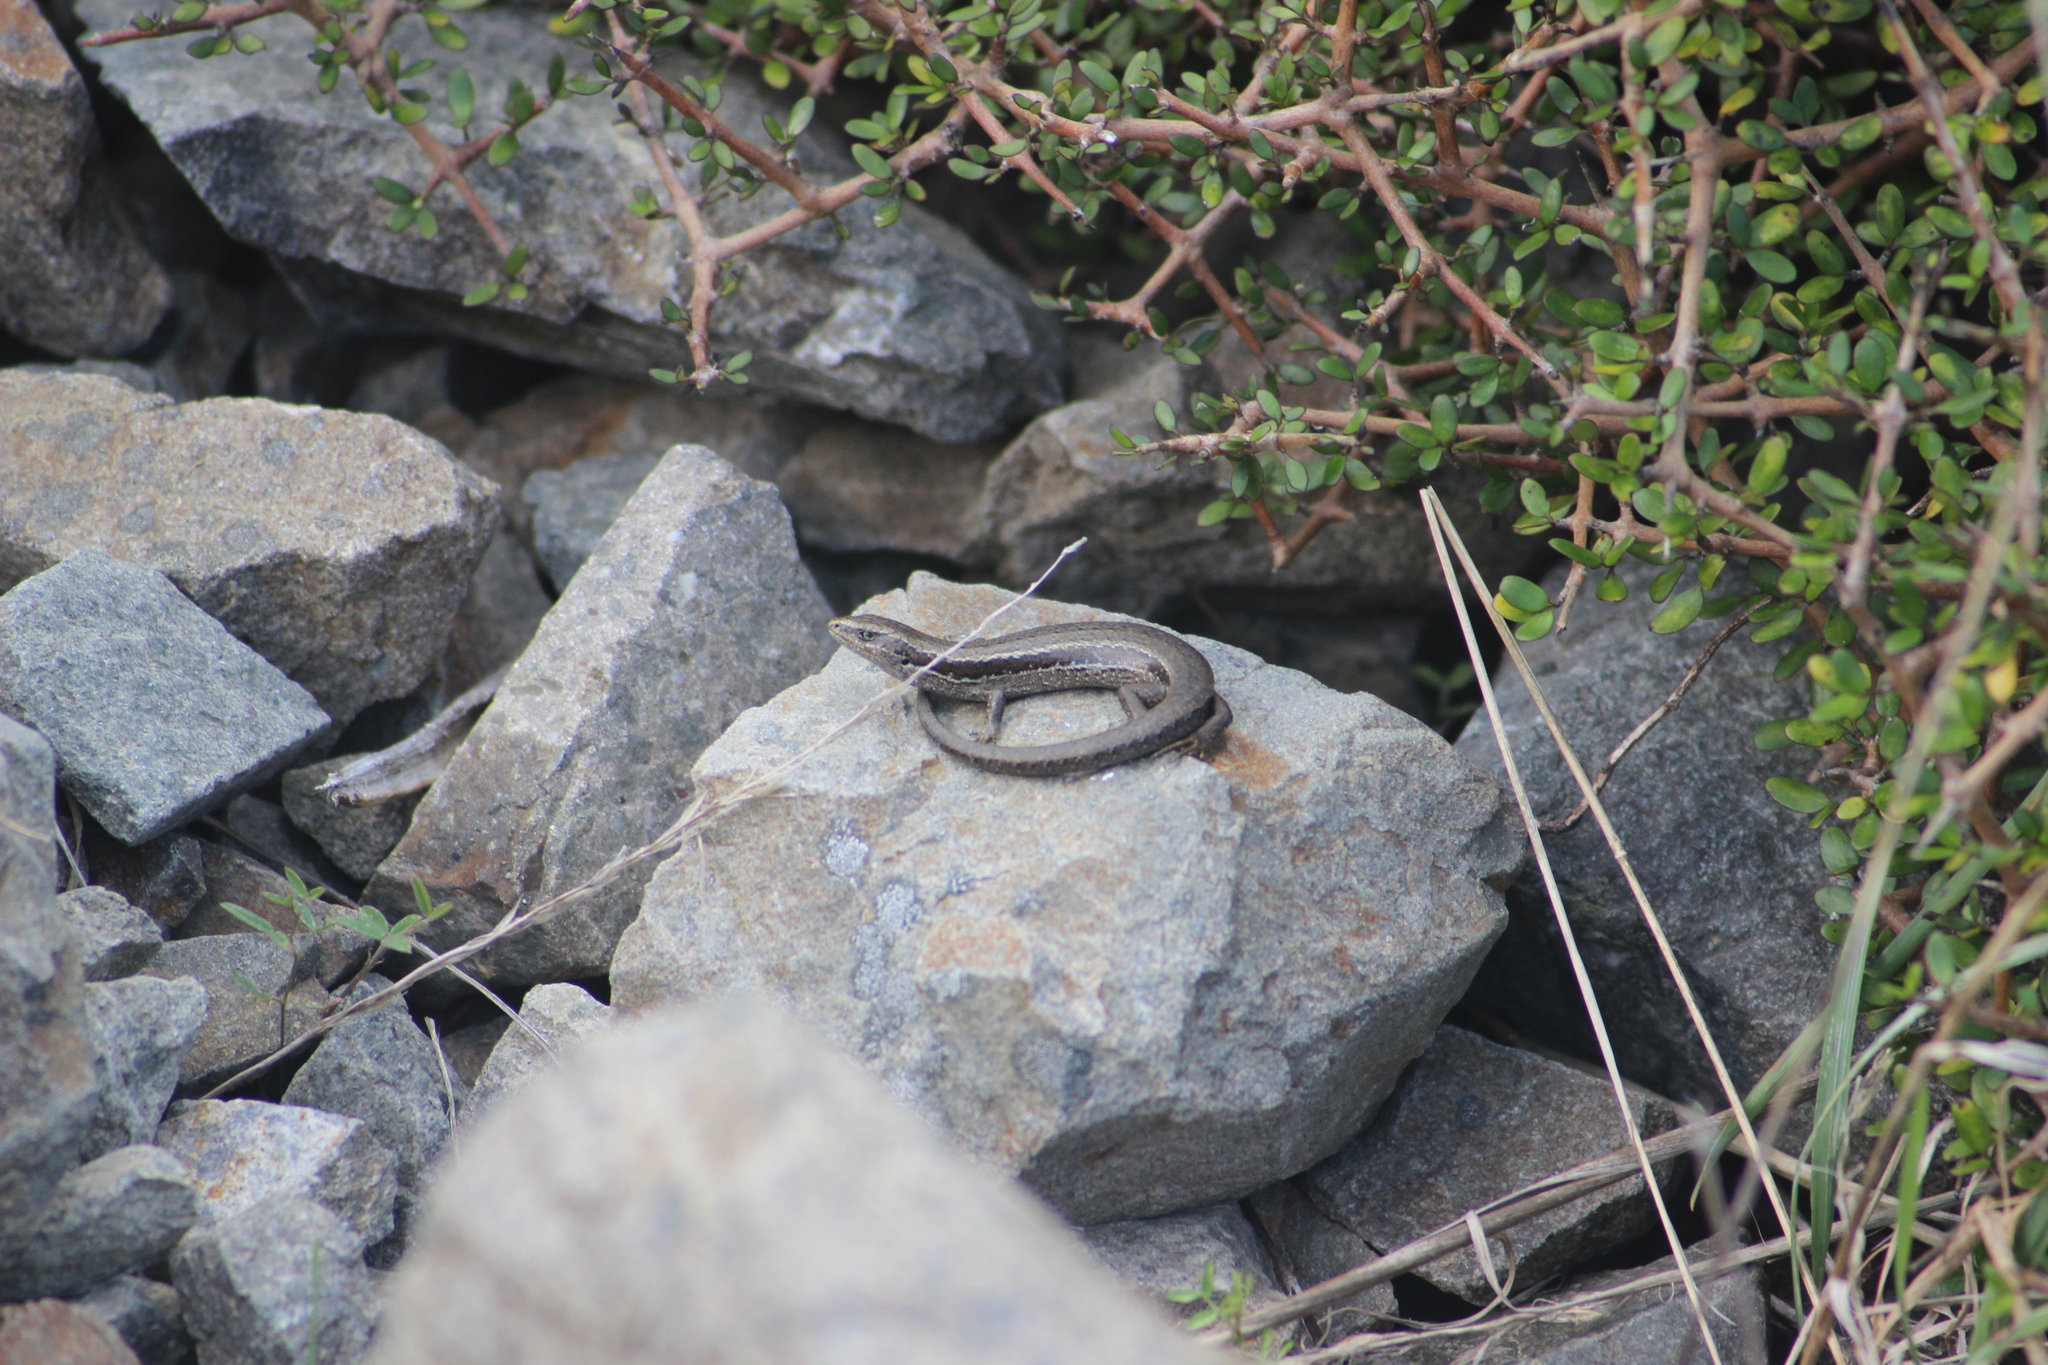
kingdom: Animalia
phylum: Chordata
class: Squamata
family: Scincidae
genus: Oligosoma
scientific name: Oligosoma polychroma
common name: Common new zealand skink
